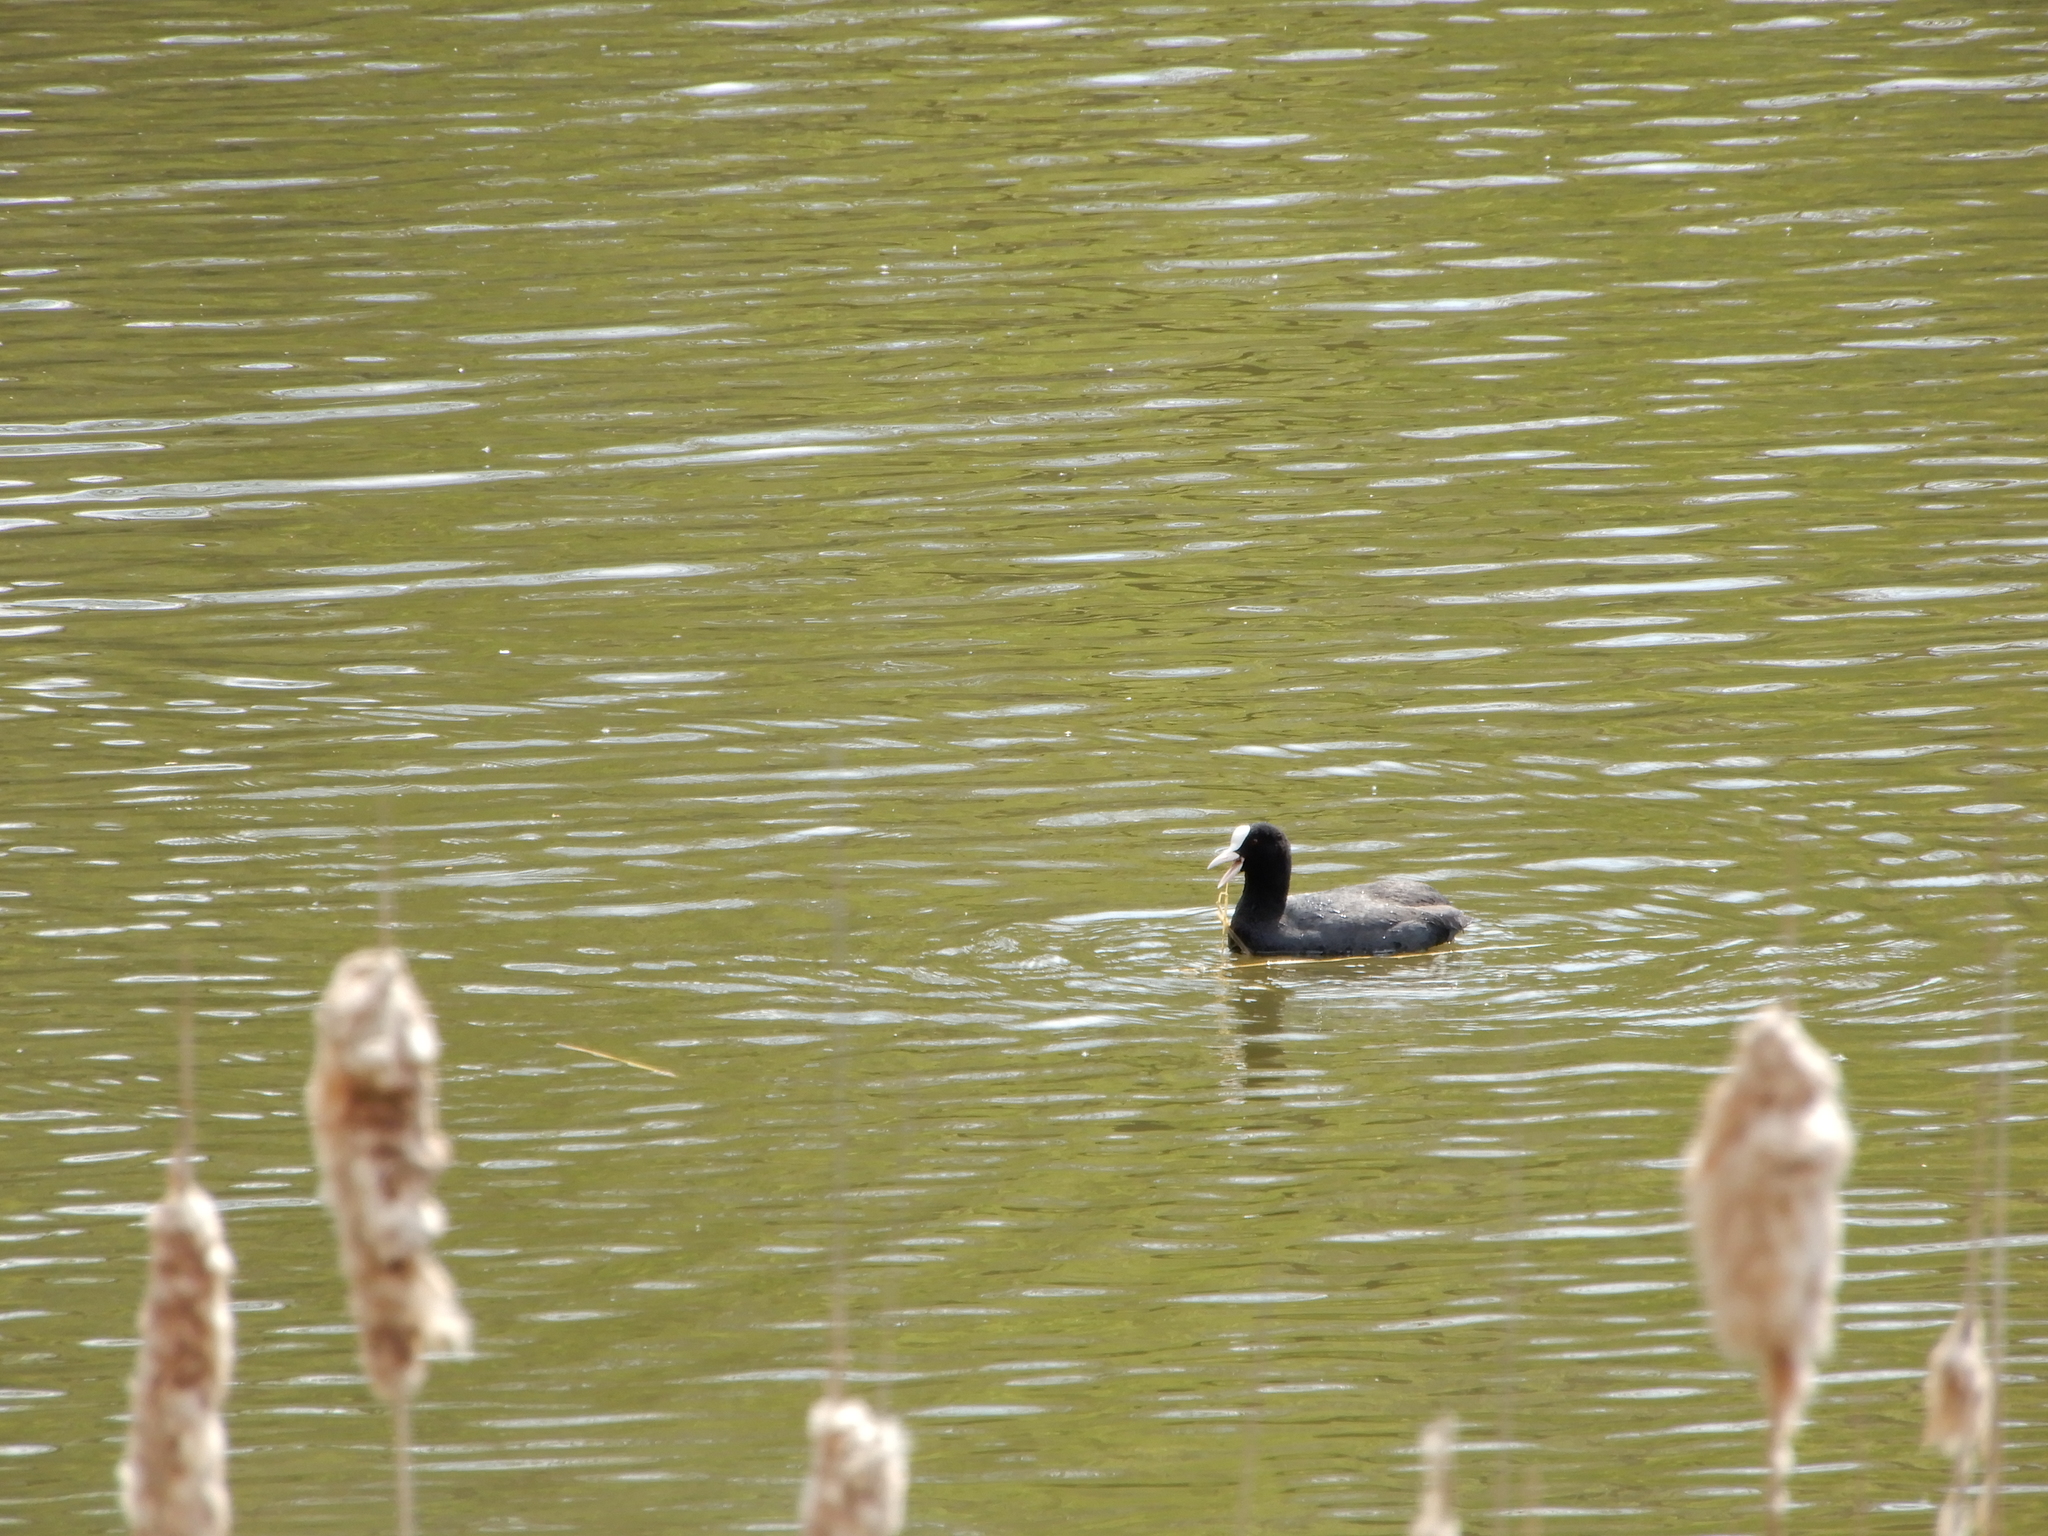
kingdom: Animalia
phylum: Chordata
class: Aves
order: Gruiformes
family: Rallidae
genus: Fulica
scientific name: Fulica atra
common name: Eurasian coot
